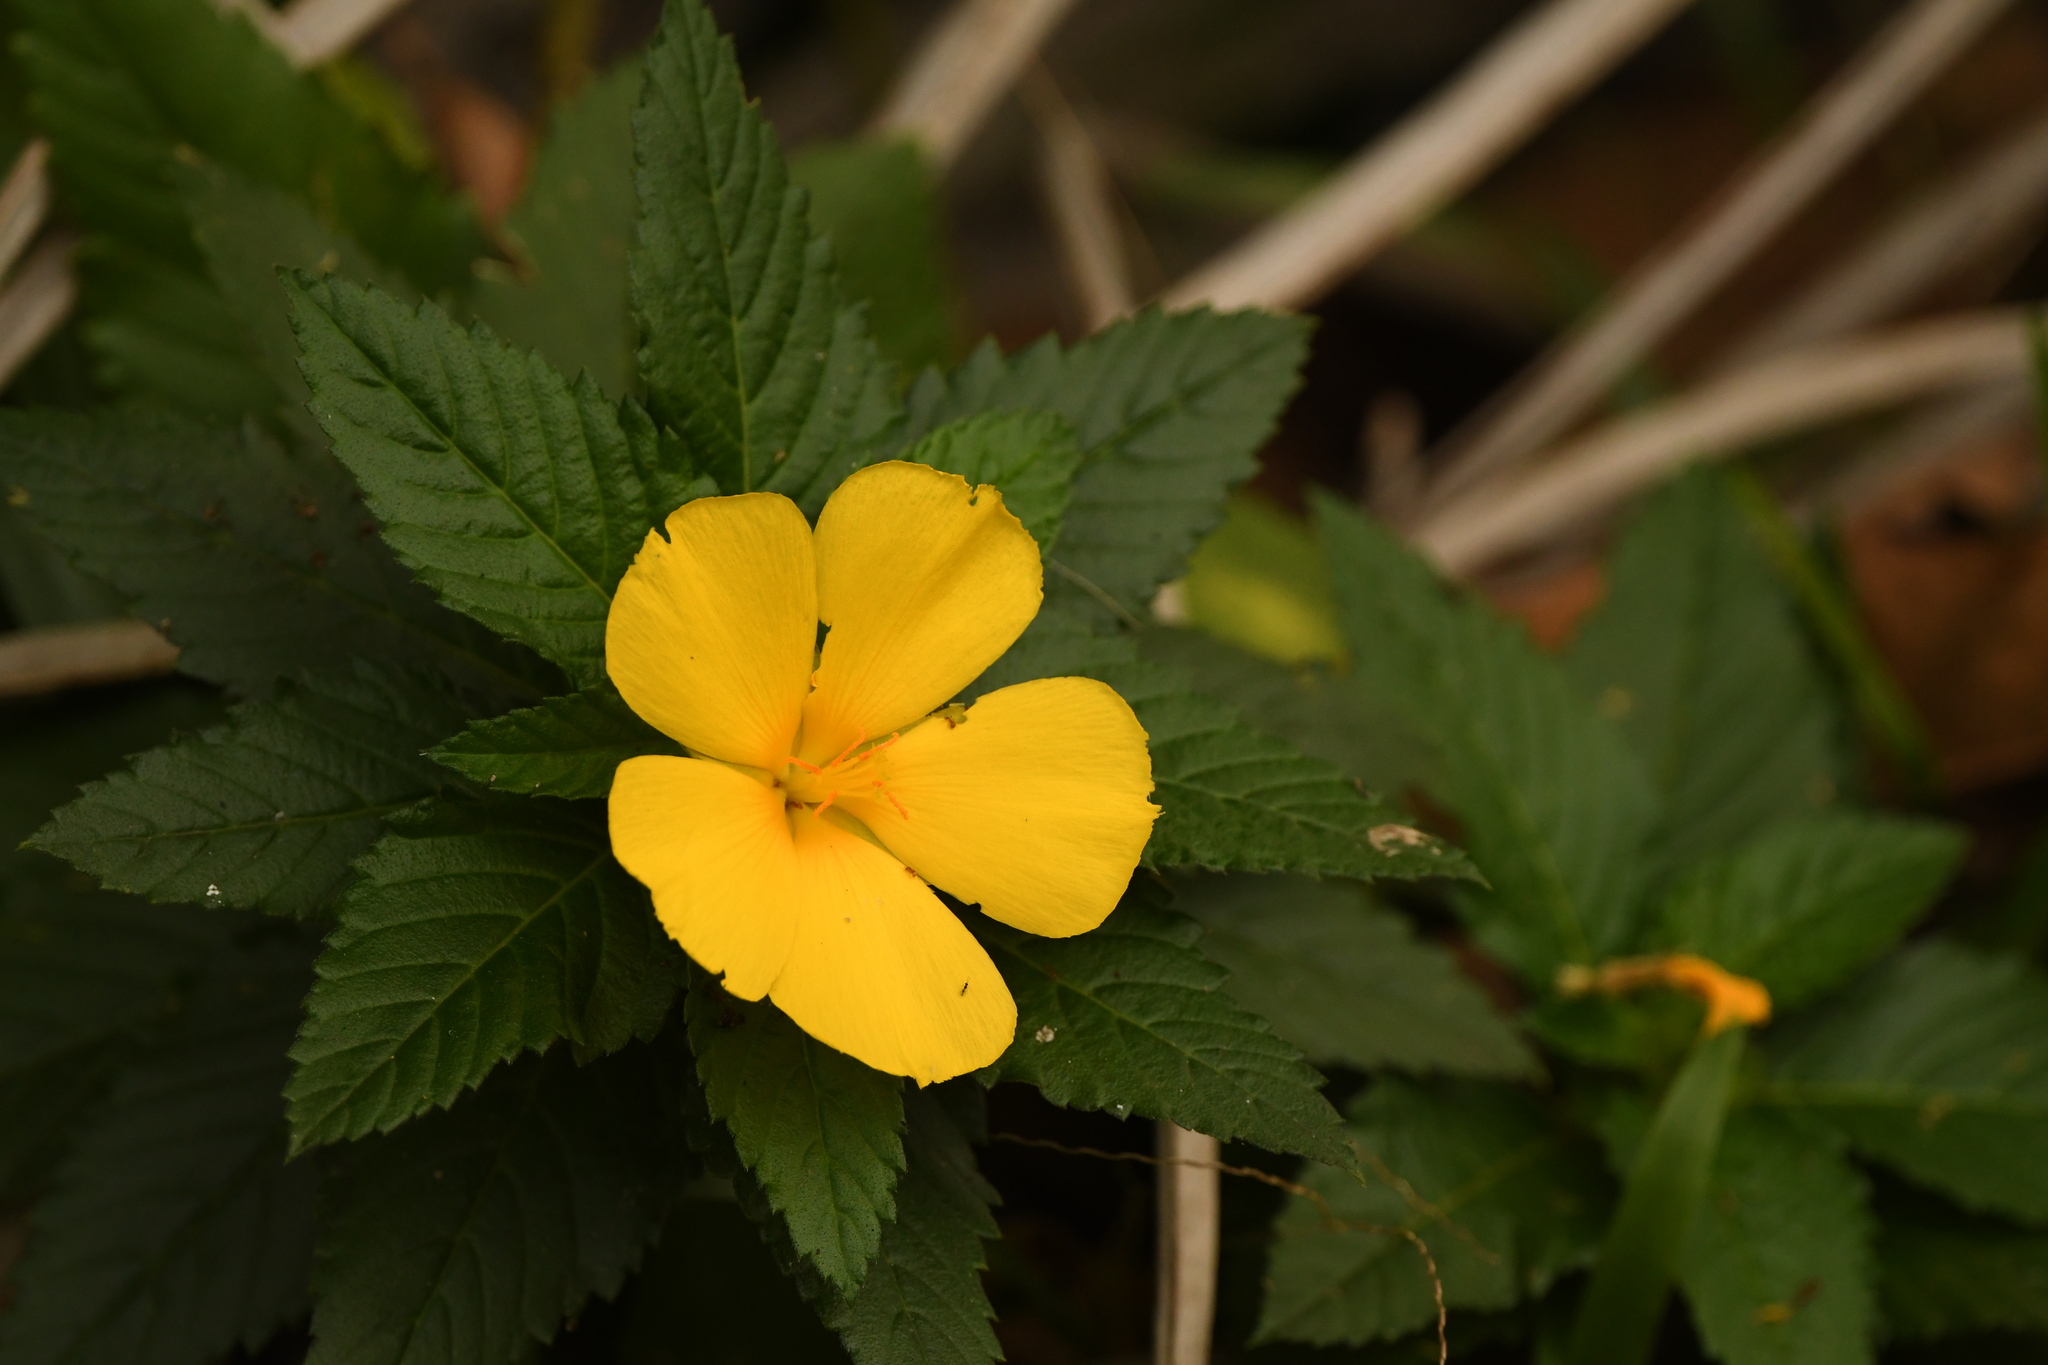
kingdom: Plantae
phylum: Tracheophyta
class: Magnoliopsida
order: Malpighiales
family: Turneraceae
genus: Turnera
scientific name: Turnera ulmifolia
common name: Ramgoat dashalong
